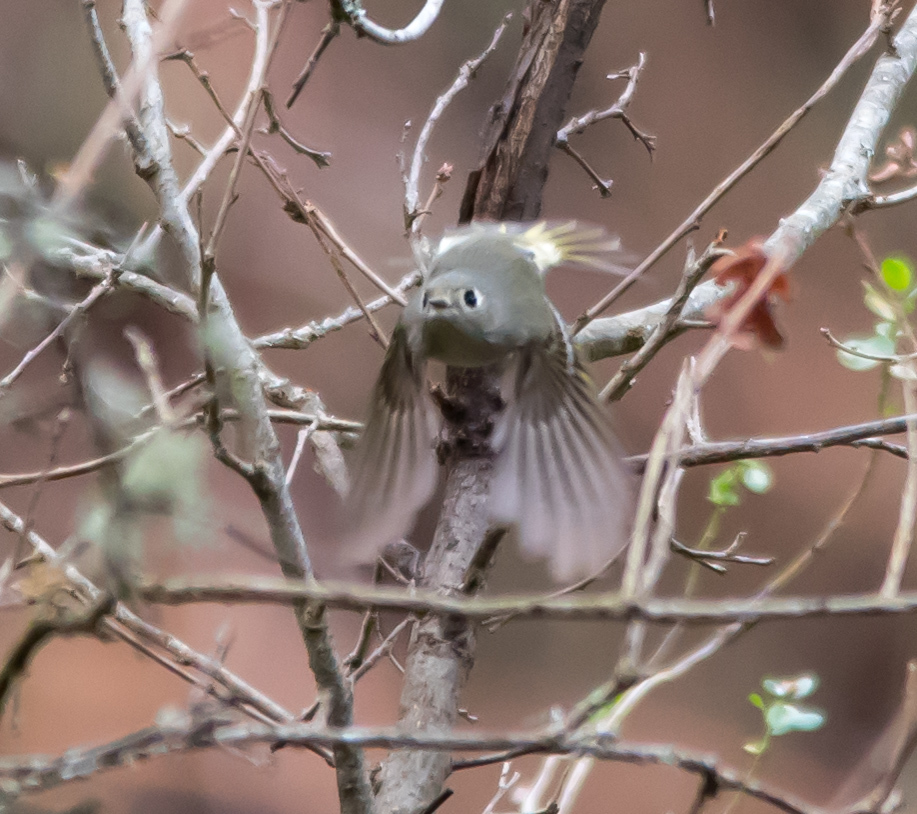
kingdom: Animalia
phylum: Chordata
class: Aves
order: Passeriformes
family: Regulidae
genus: Regulus
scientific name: Regulus calendula
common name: Ruby-crowned kinglet
